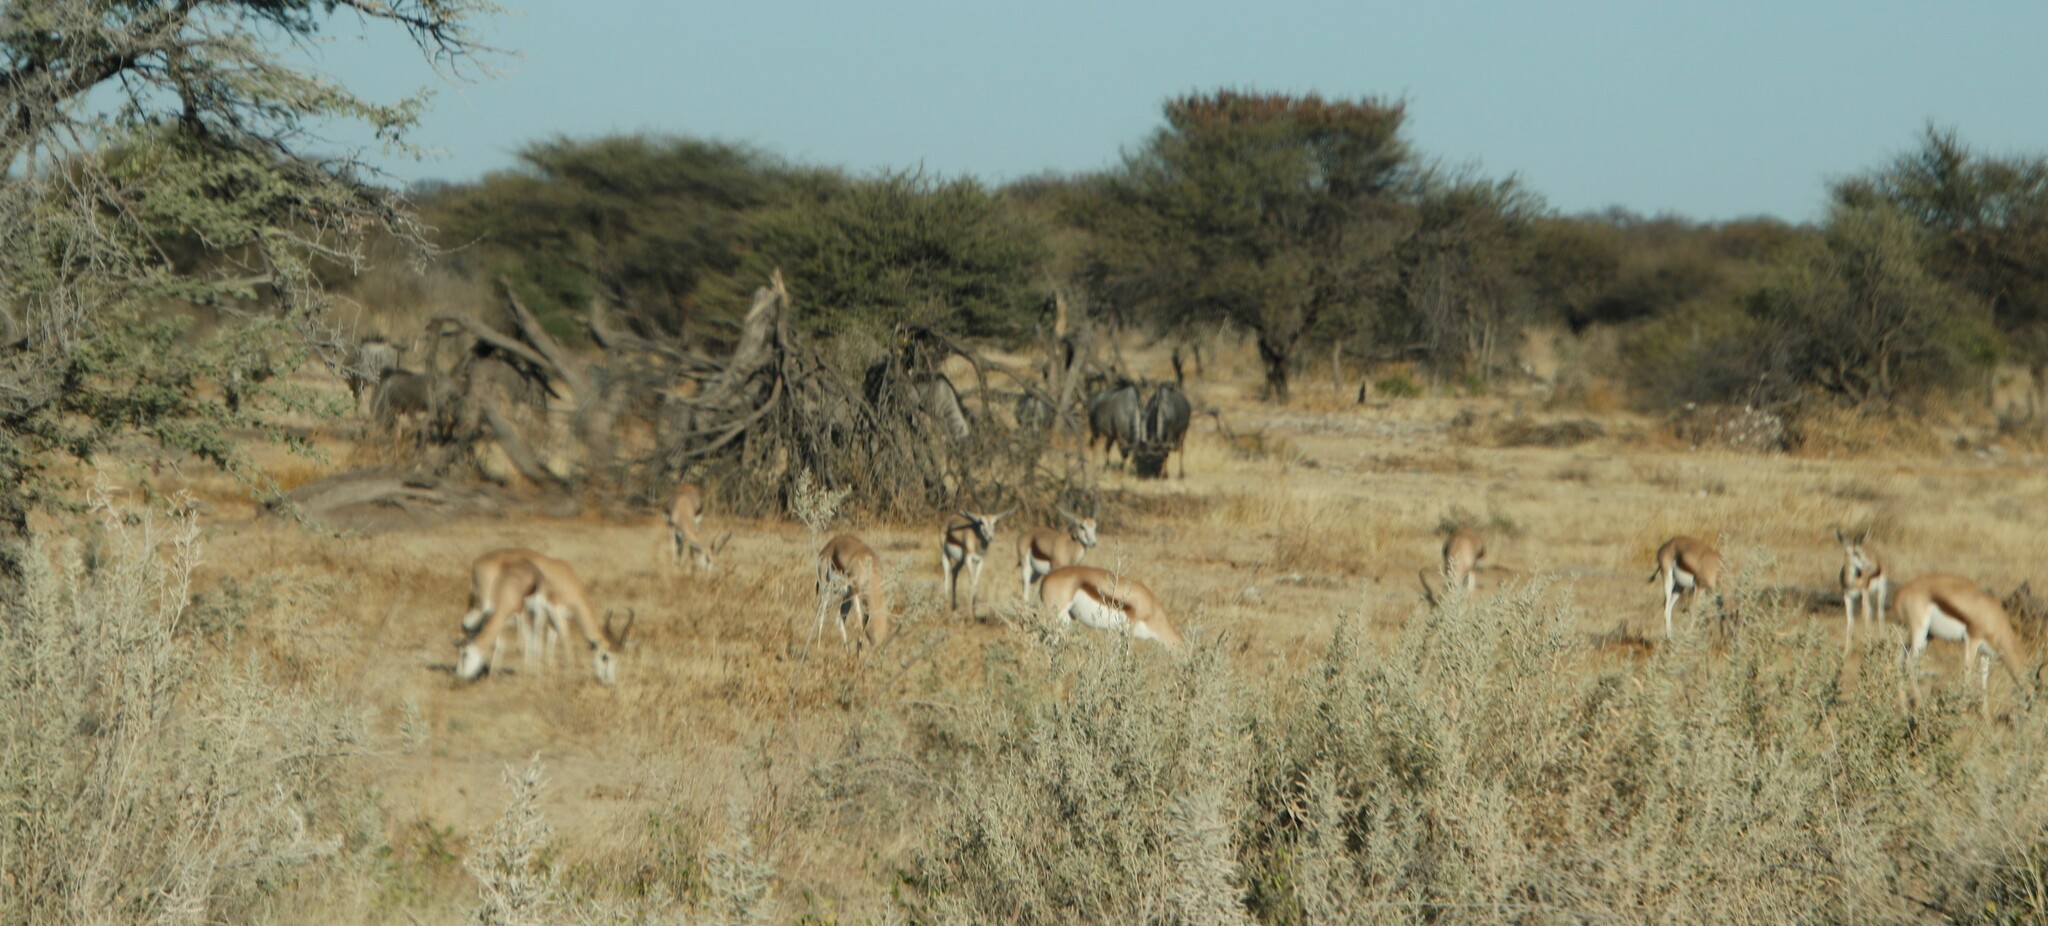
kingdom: Animalia
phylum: Chordata
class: Mammalia
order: Artiodactyla
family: Bovidae
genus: Antidorcas
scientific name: Antidorcas marsupialis
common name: Springbok
